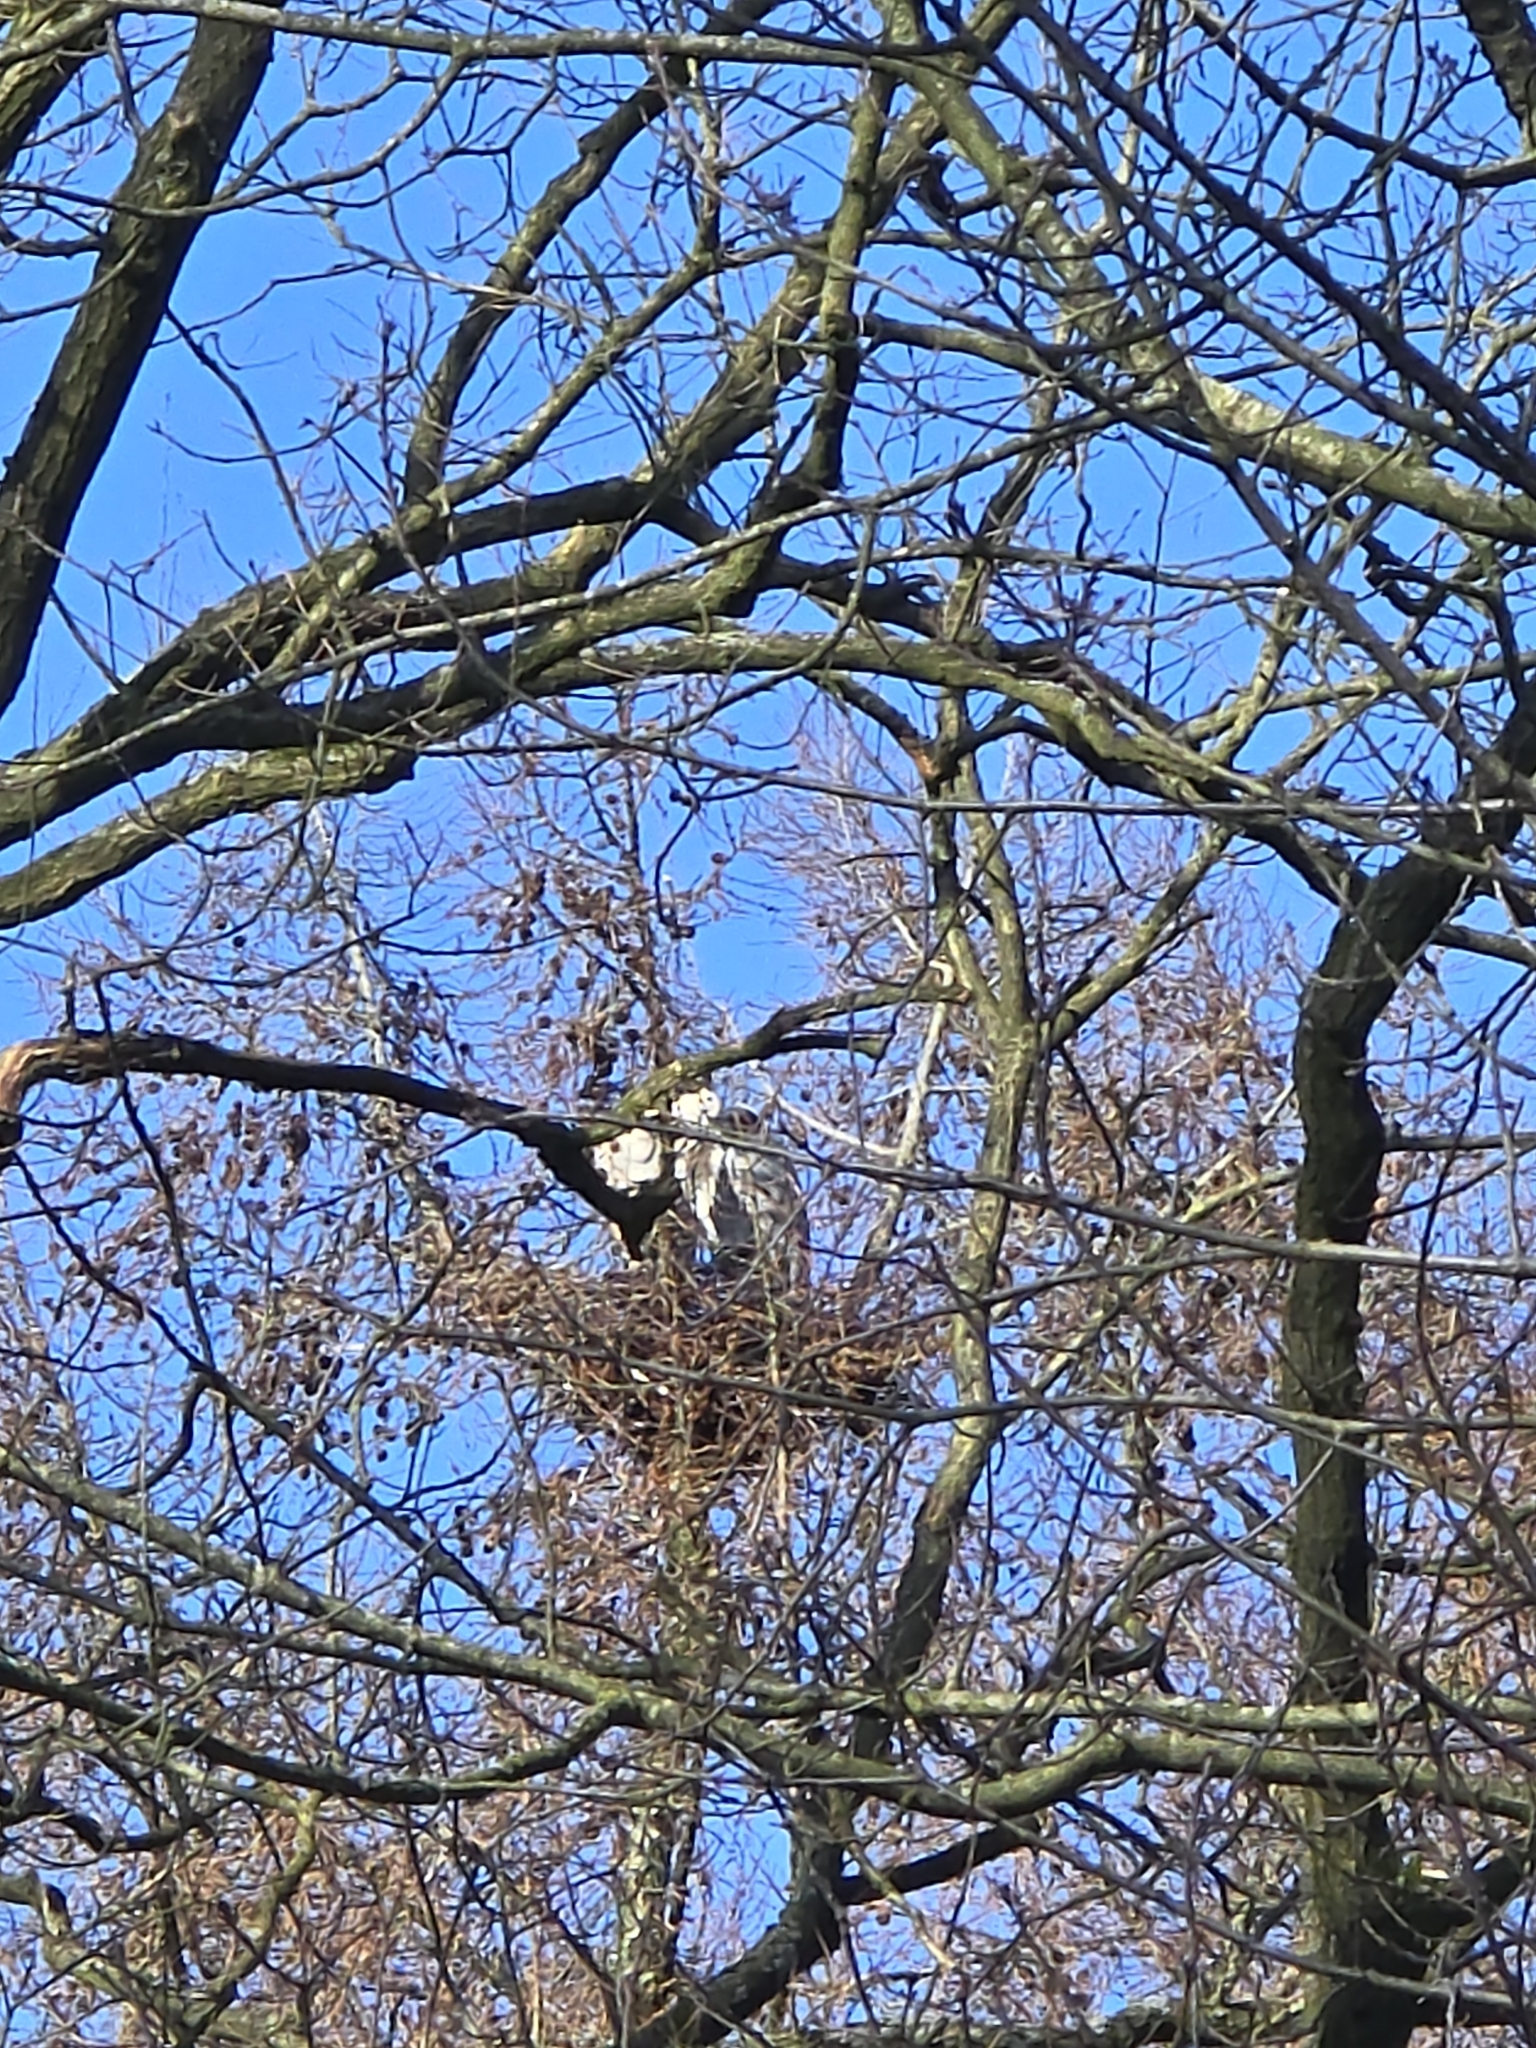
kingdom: Animalia
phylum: Chordata
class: Aves
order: Pelecaniformes
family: Ardeidae
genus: Ardea
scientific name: Ardea cinerea
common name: Grey heron
